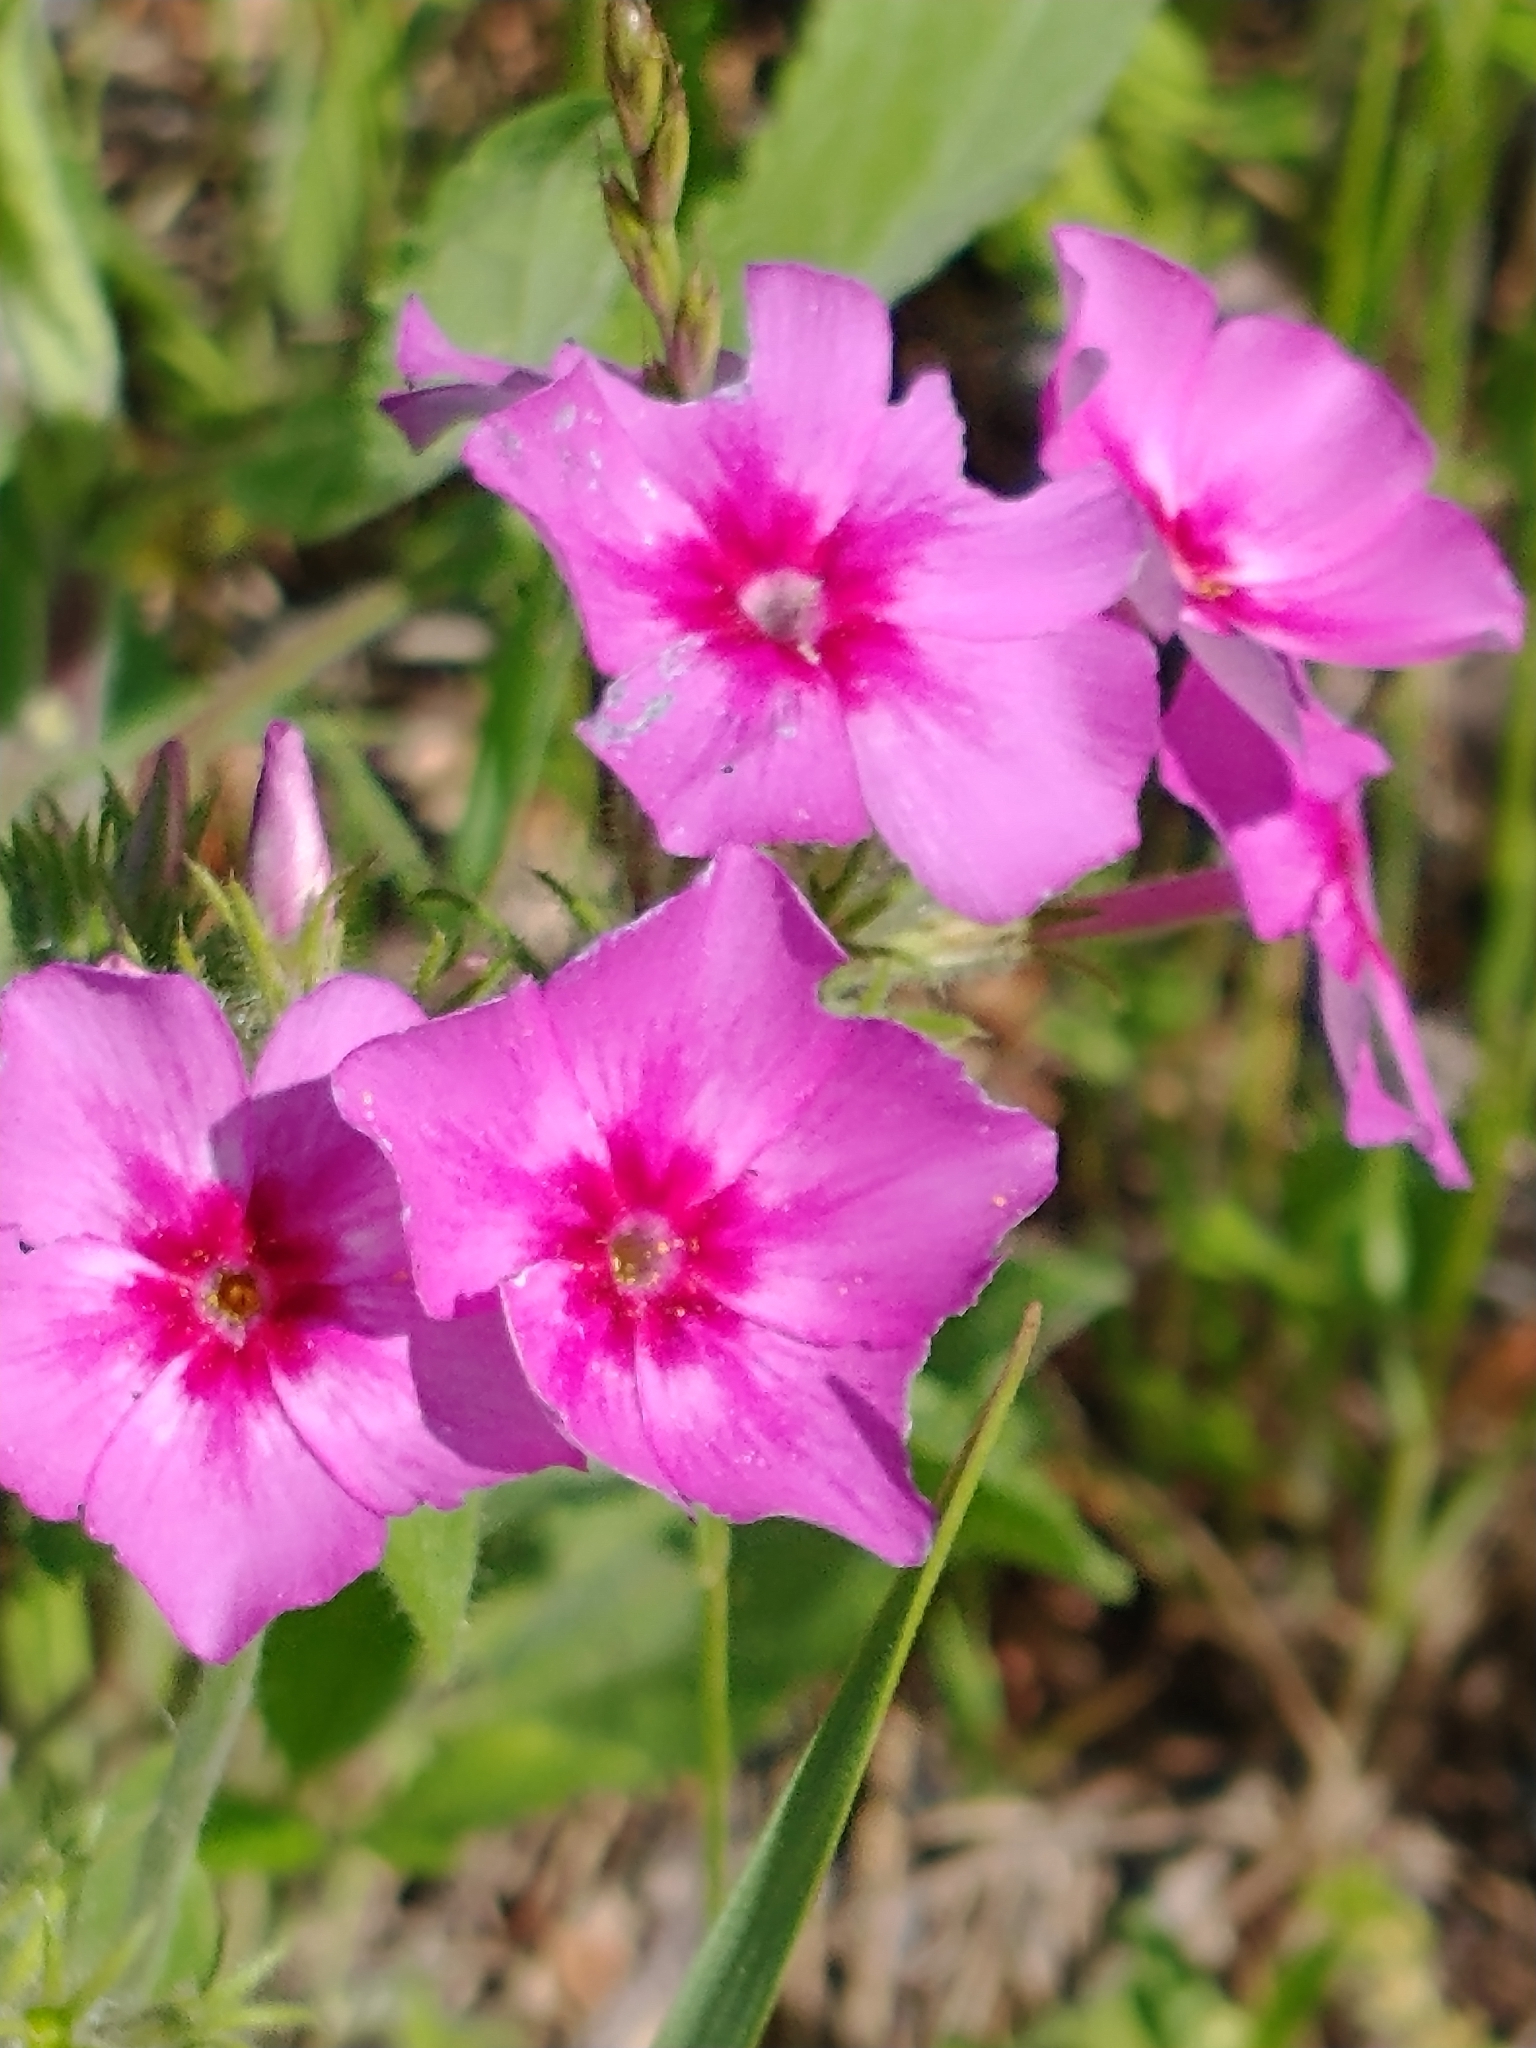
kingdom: Plantae
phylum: Tracheophyta
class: Magnoliopsida
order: Ericales
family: Polemoniaceae
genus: Phlox
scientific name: Phlox drummondii
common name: Drummond's phlox
